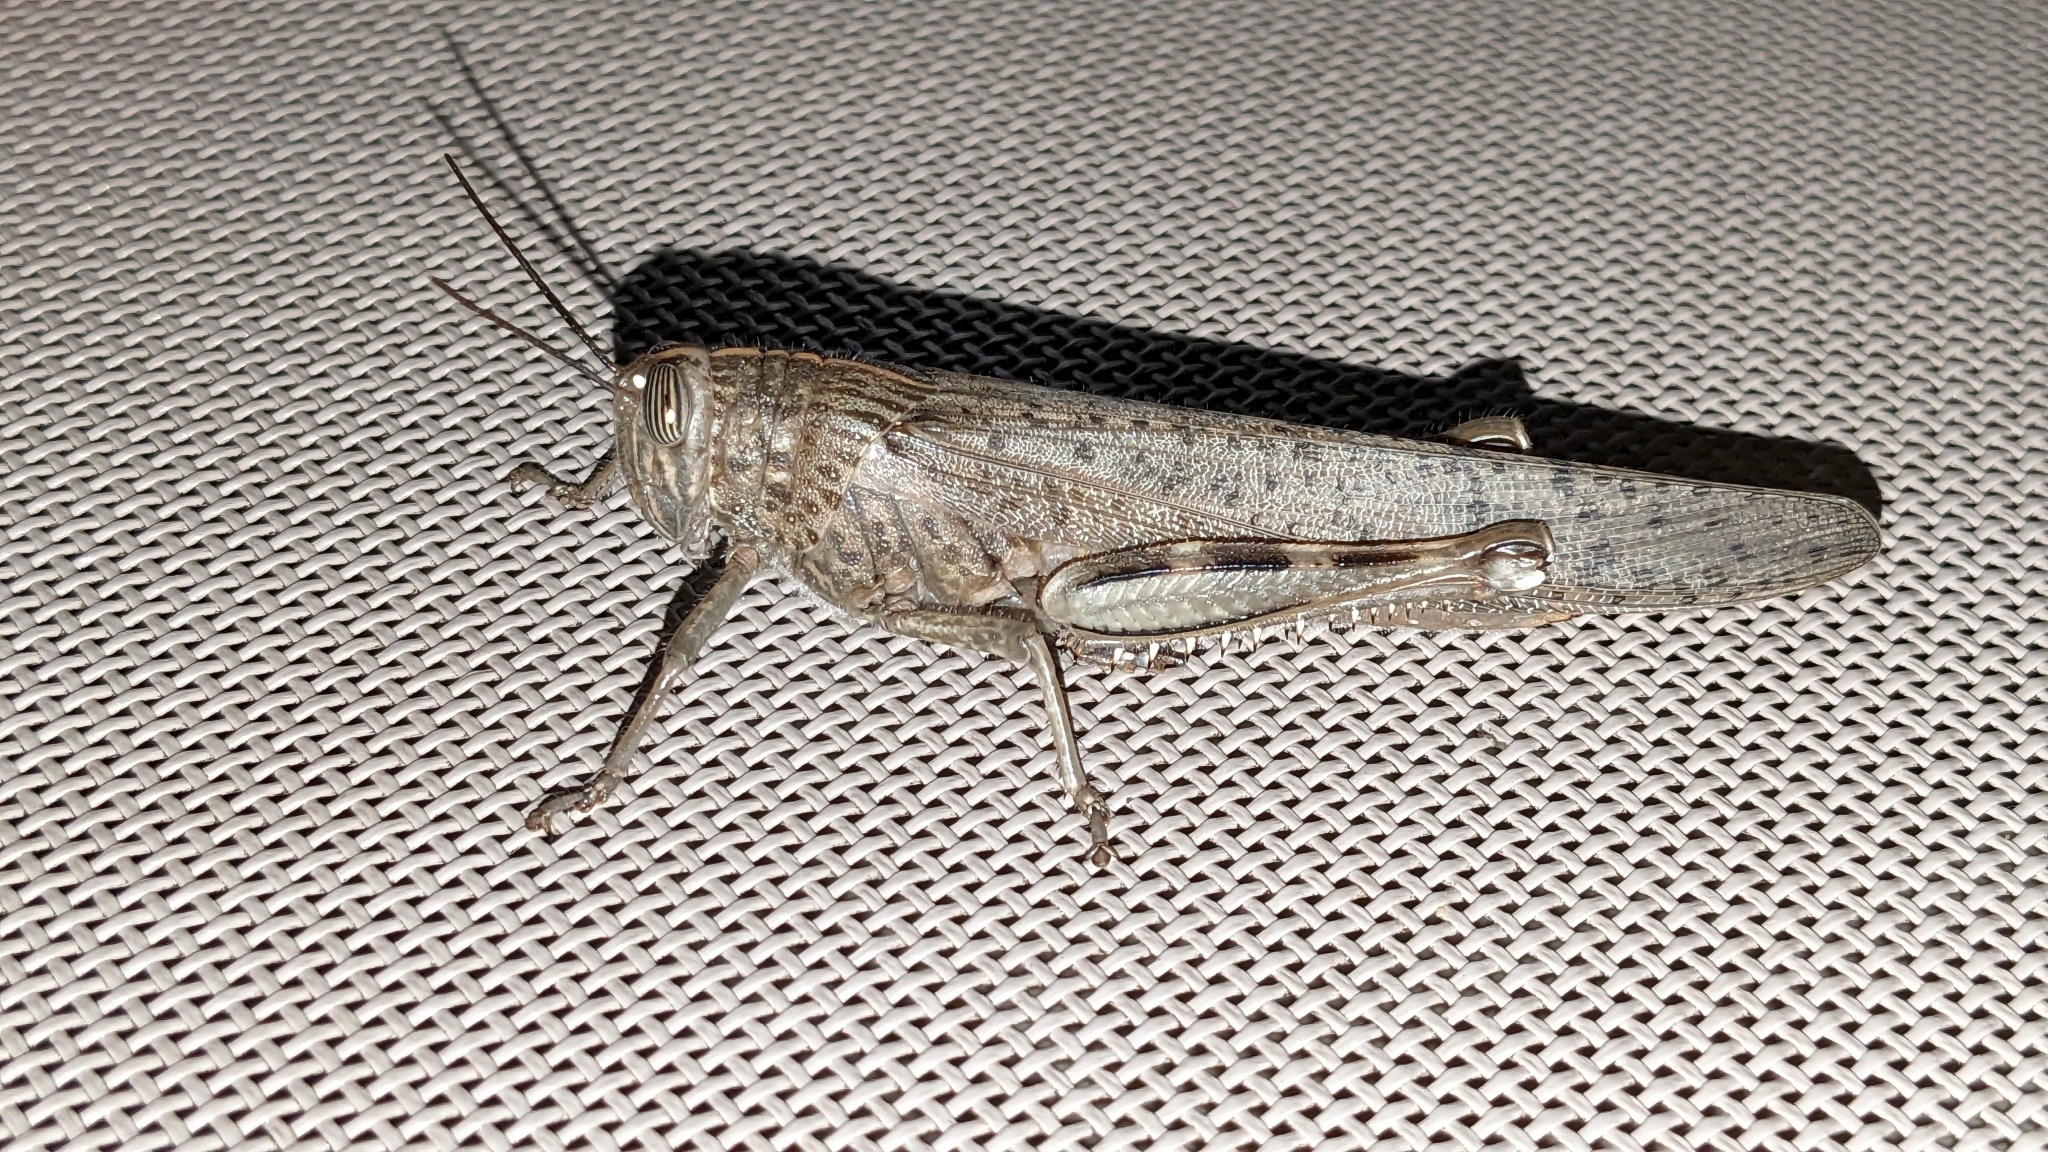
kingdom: Animalia
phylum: Arthropoda
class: Insecta
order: Orthoptera
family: Acrididae
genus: Anacridium
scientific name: Anacridium aegyptium
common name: Egyptian grasshopper
